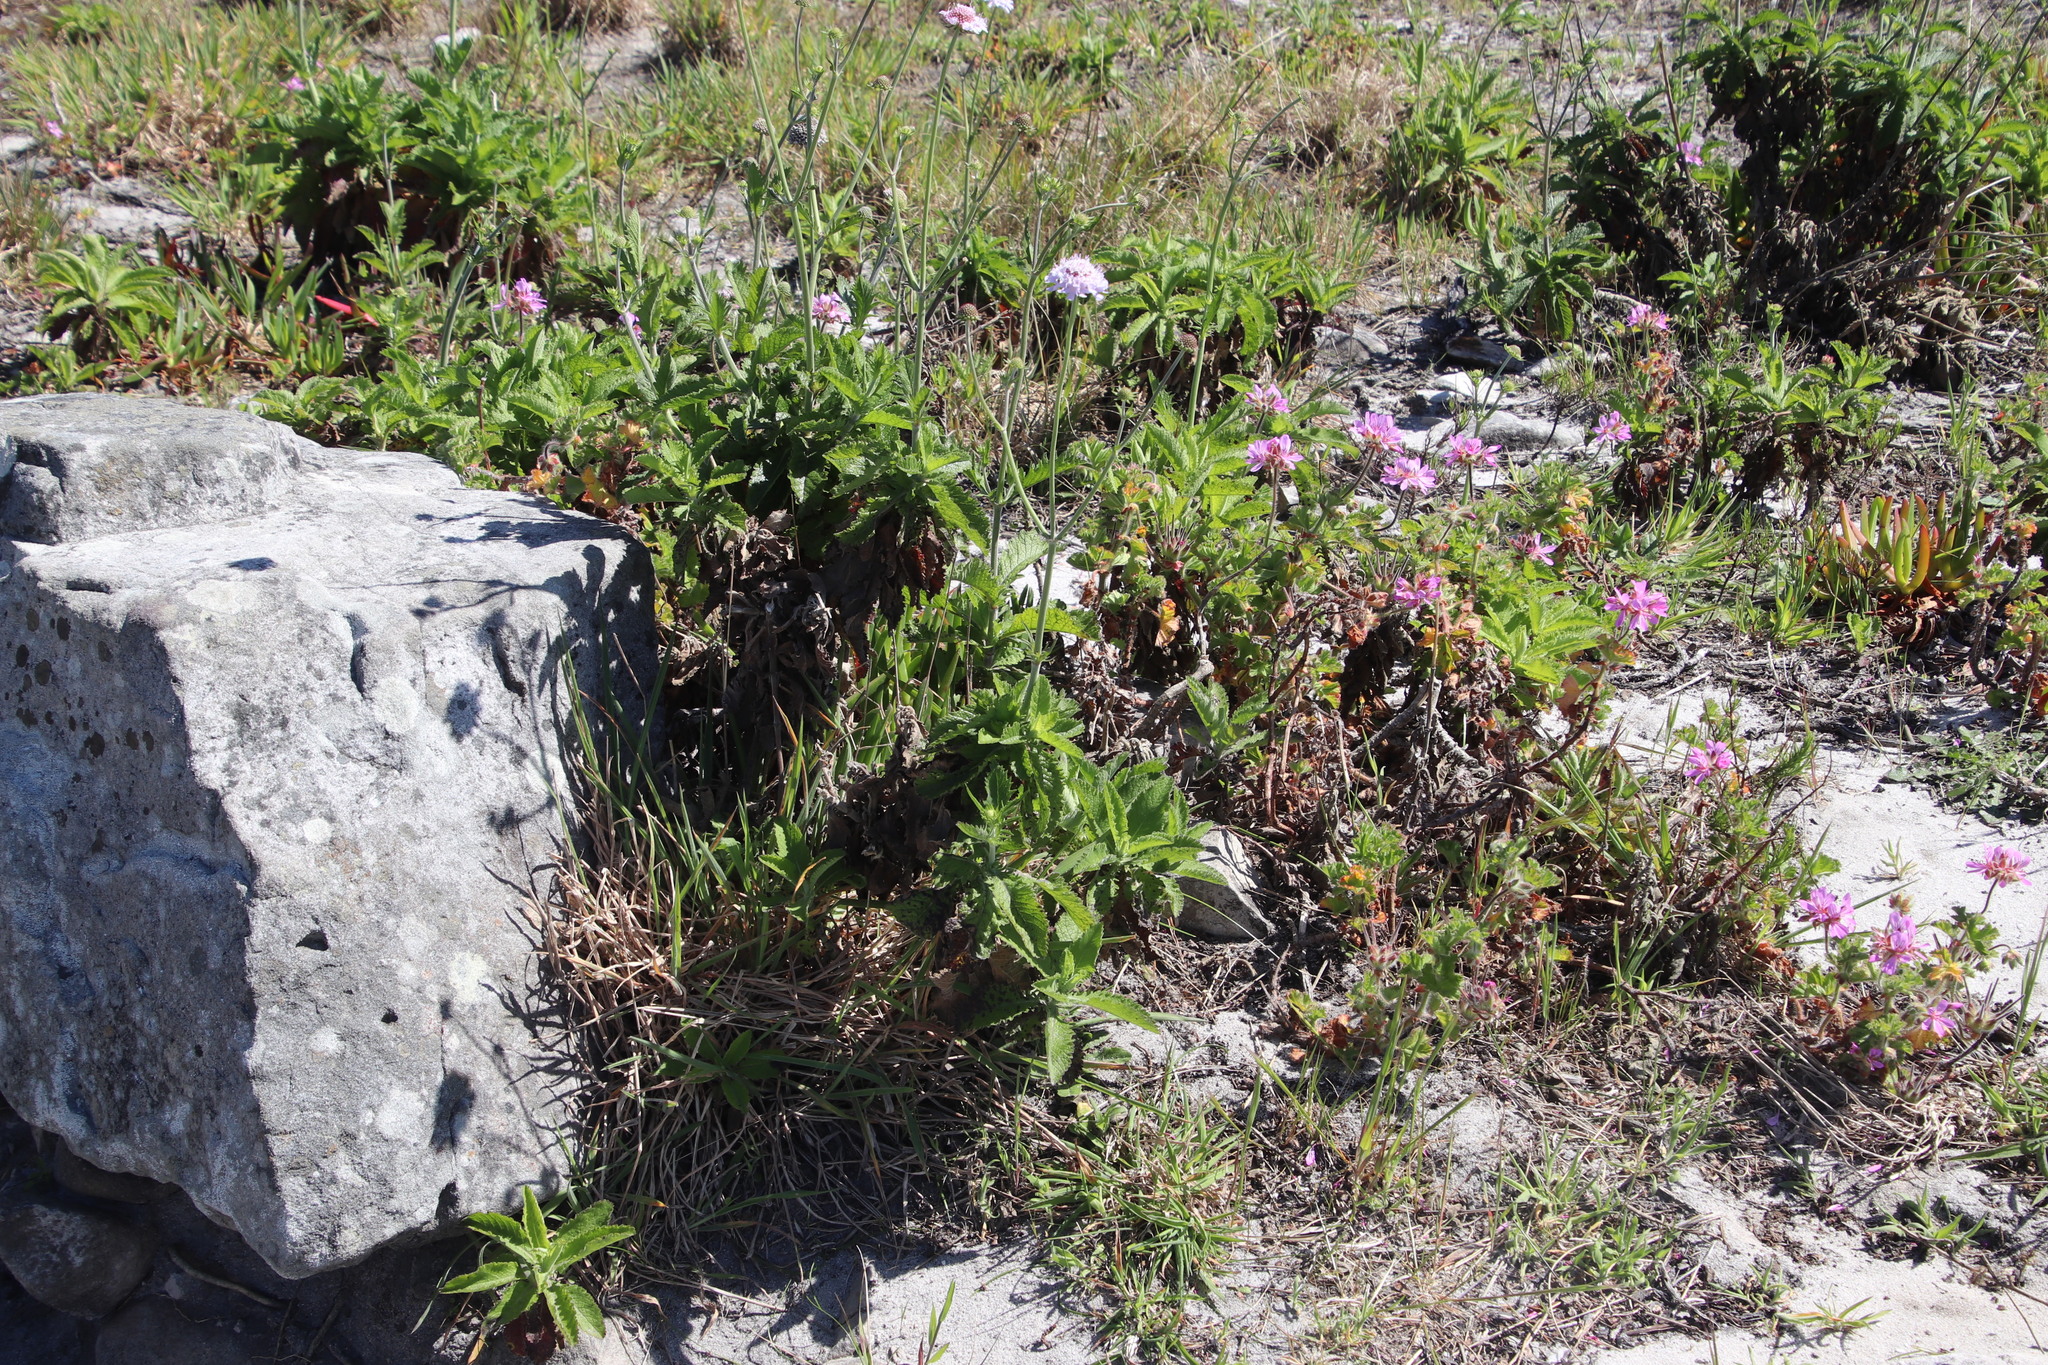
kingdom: Plantae
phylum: Tracheophyta
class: Magnoliopsida
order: Dipsacales
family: Caprifoliaceae
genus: Scabiosa
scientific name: Scabiosa africana
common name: Cape scabious
